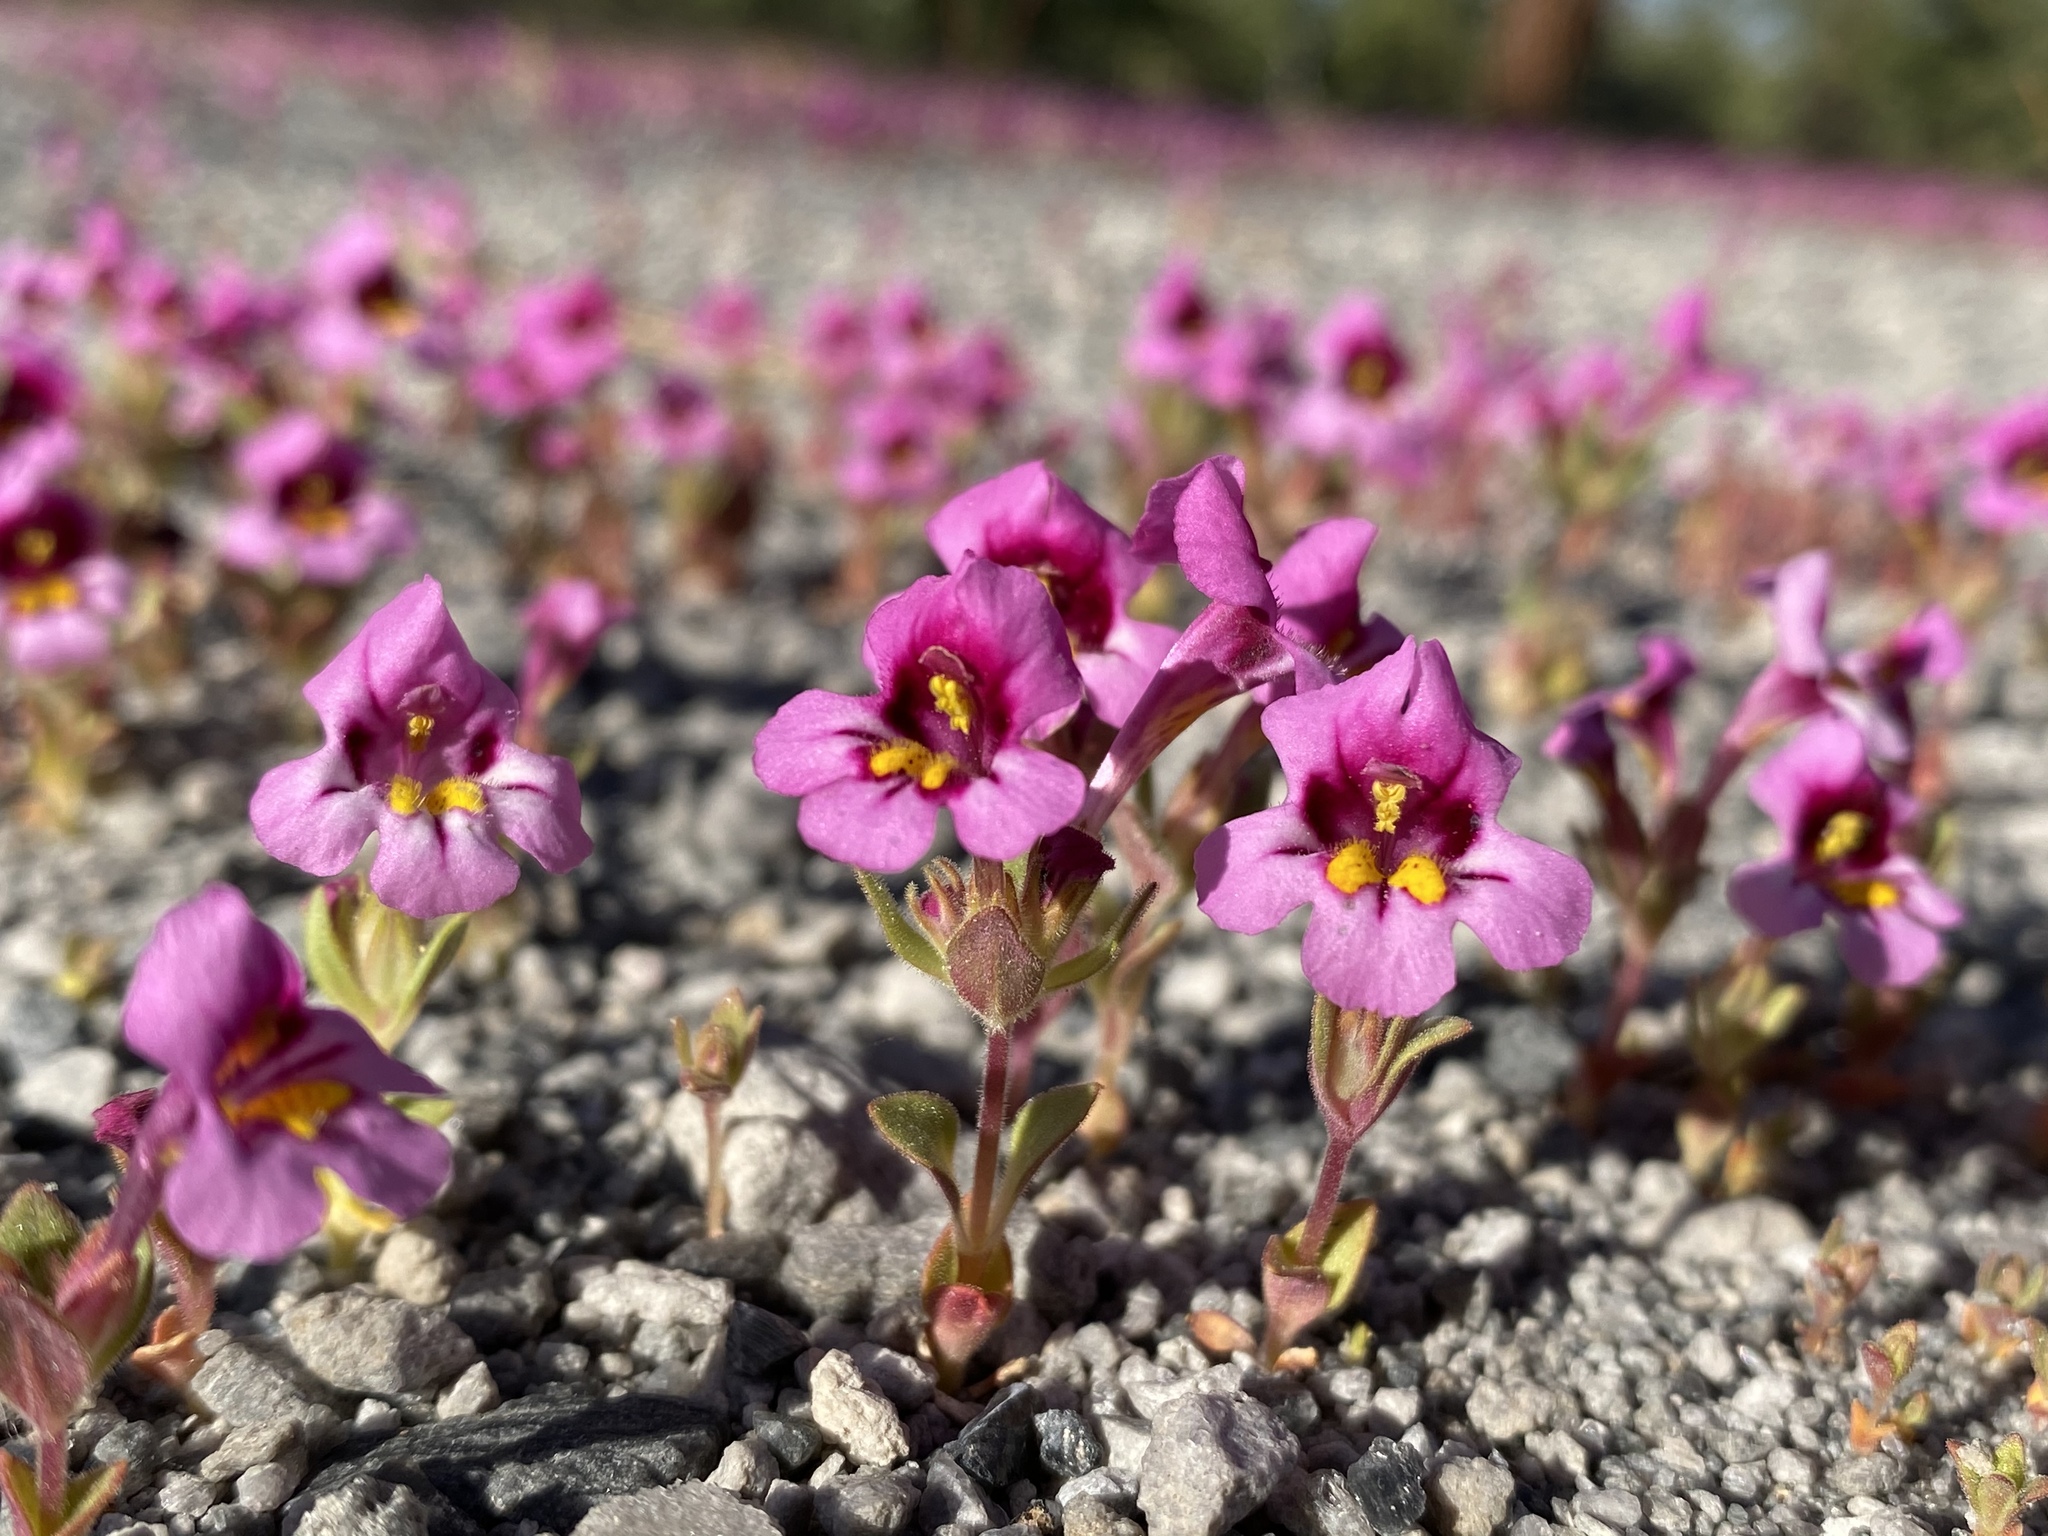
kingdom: Plantae
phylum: Tracheophyta
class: Magnoliopsida
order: Lamiales
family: Phrymaceae
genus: Diplacus
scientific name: Diplacus mephiticus
